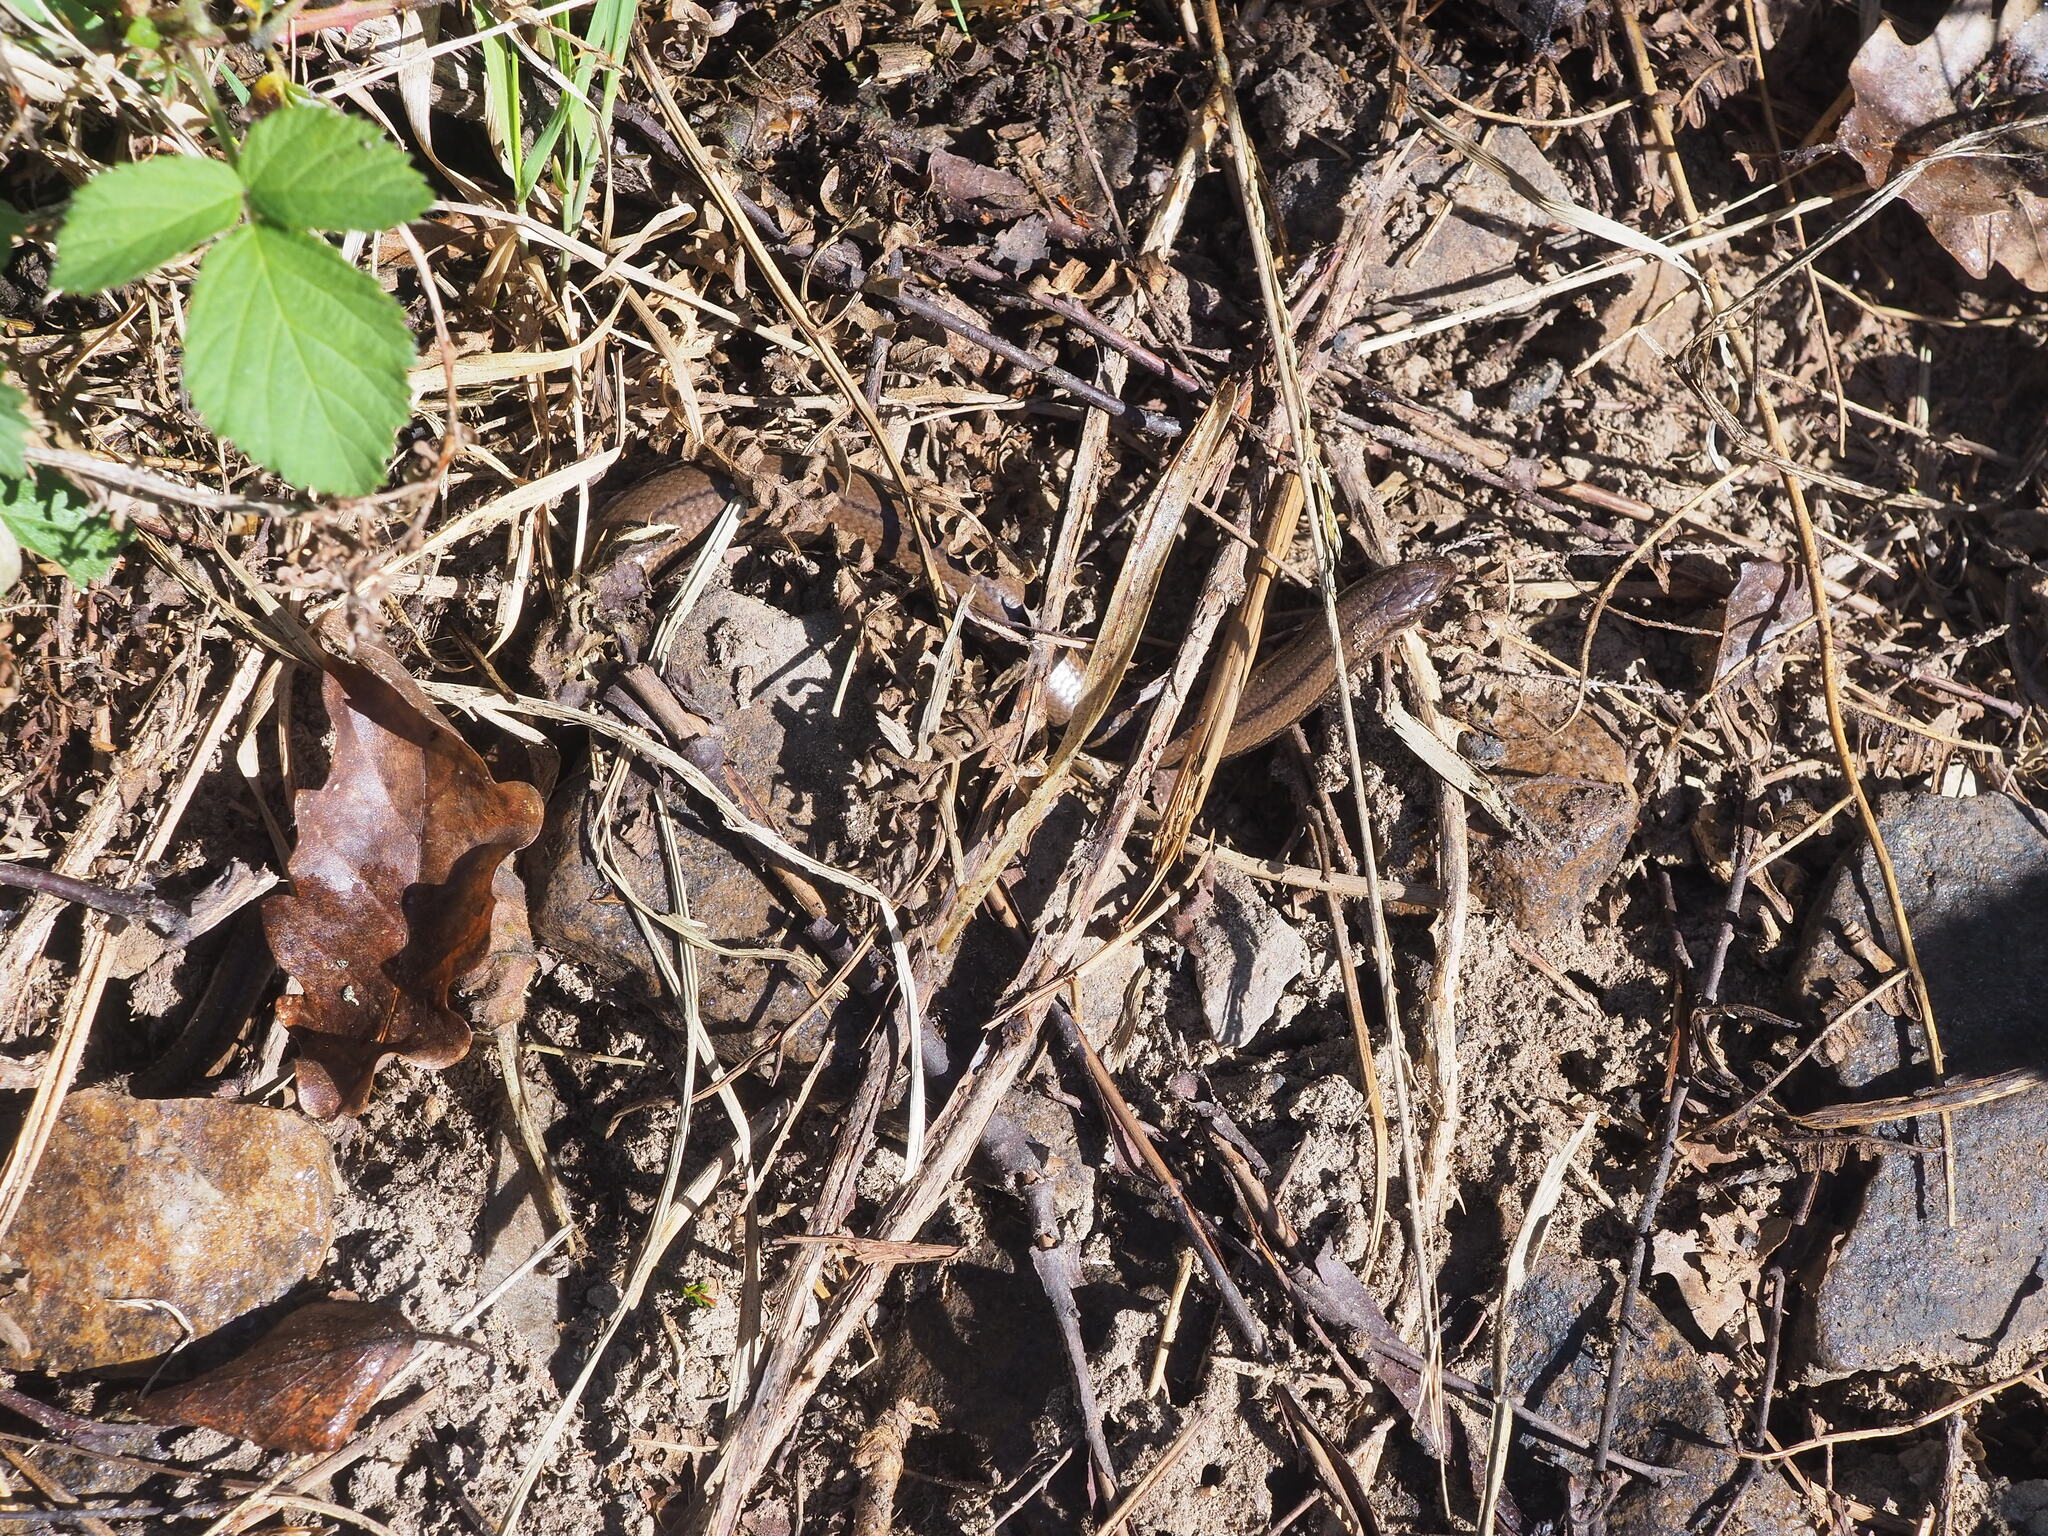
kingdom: Animalia
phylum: Chordata
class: Squamata
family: Anguidae
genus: Anguis
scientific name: Anguis fragilis
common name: Slow worm
